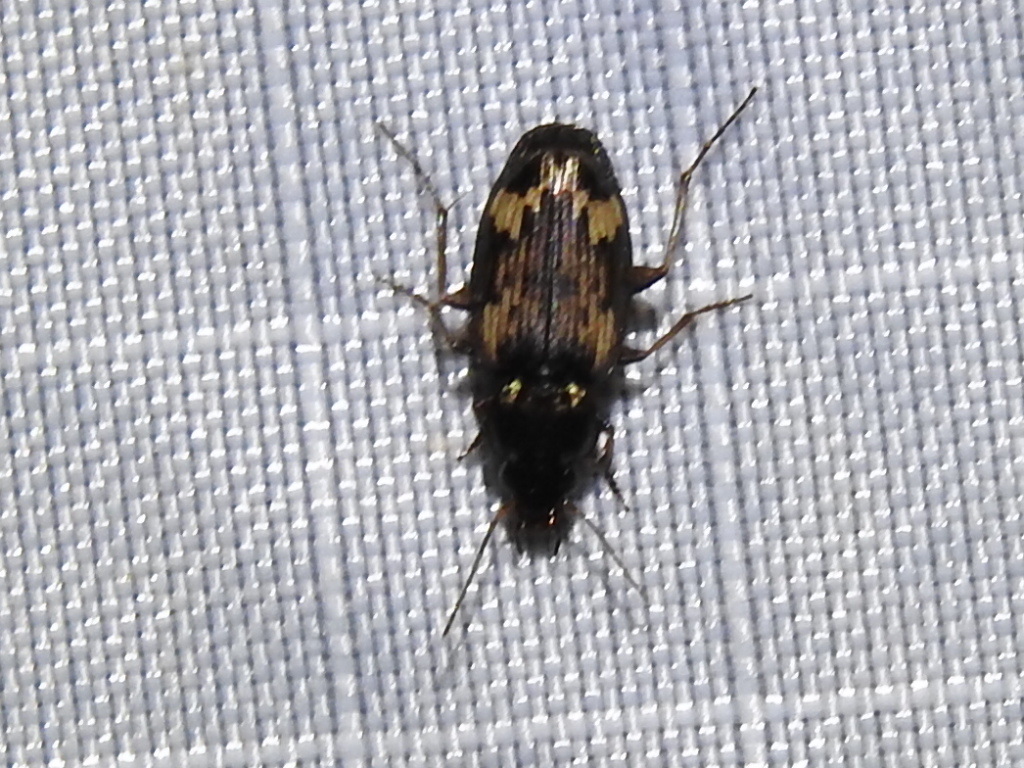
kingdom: Animalia
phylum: Arthropoda
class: Insecta
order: Coleoptera
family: Carabidae
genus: Tetragonoderus
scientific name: Tetragonoderus intersectus
